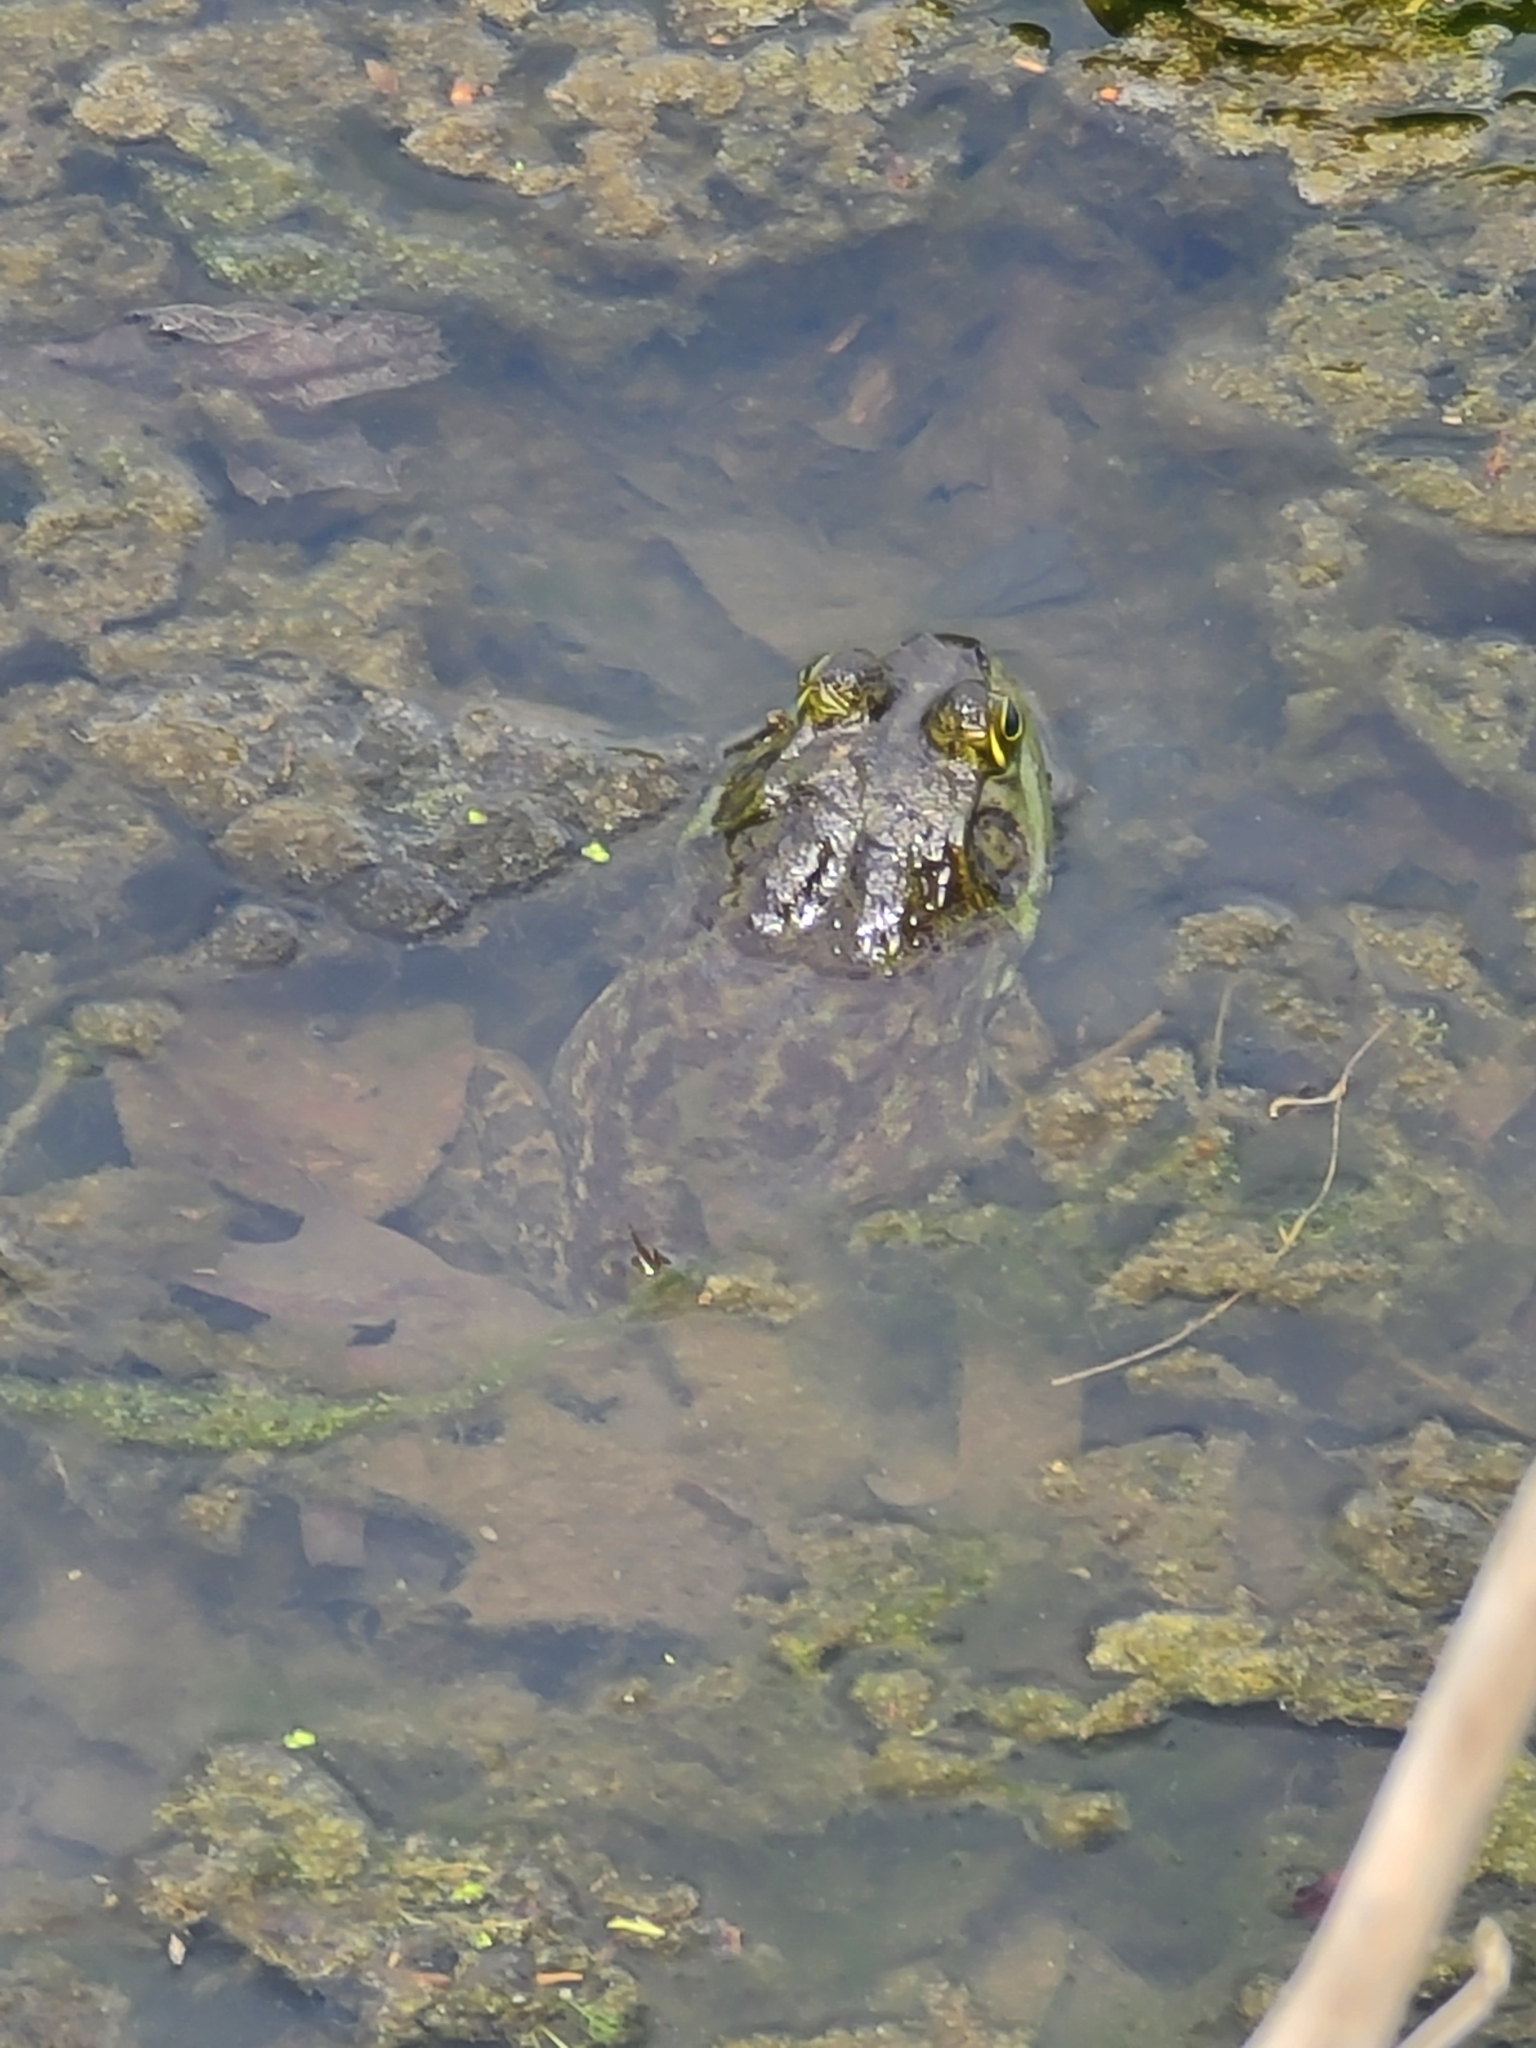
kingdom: Animalia
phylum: Chordata
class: Amphibia
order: Anura
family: Ranidae
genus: Lithobates
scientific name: Lithobates catesbeianus
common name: American bullfrog
